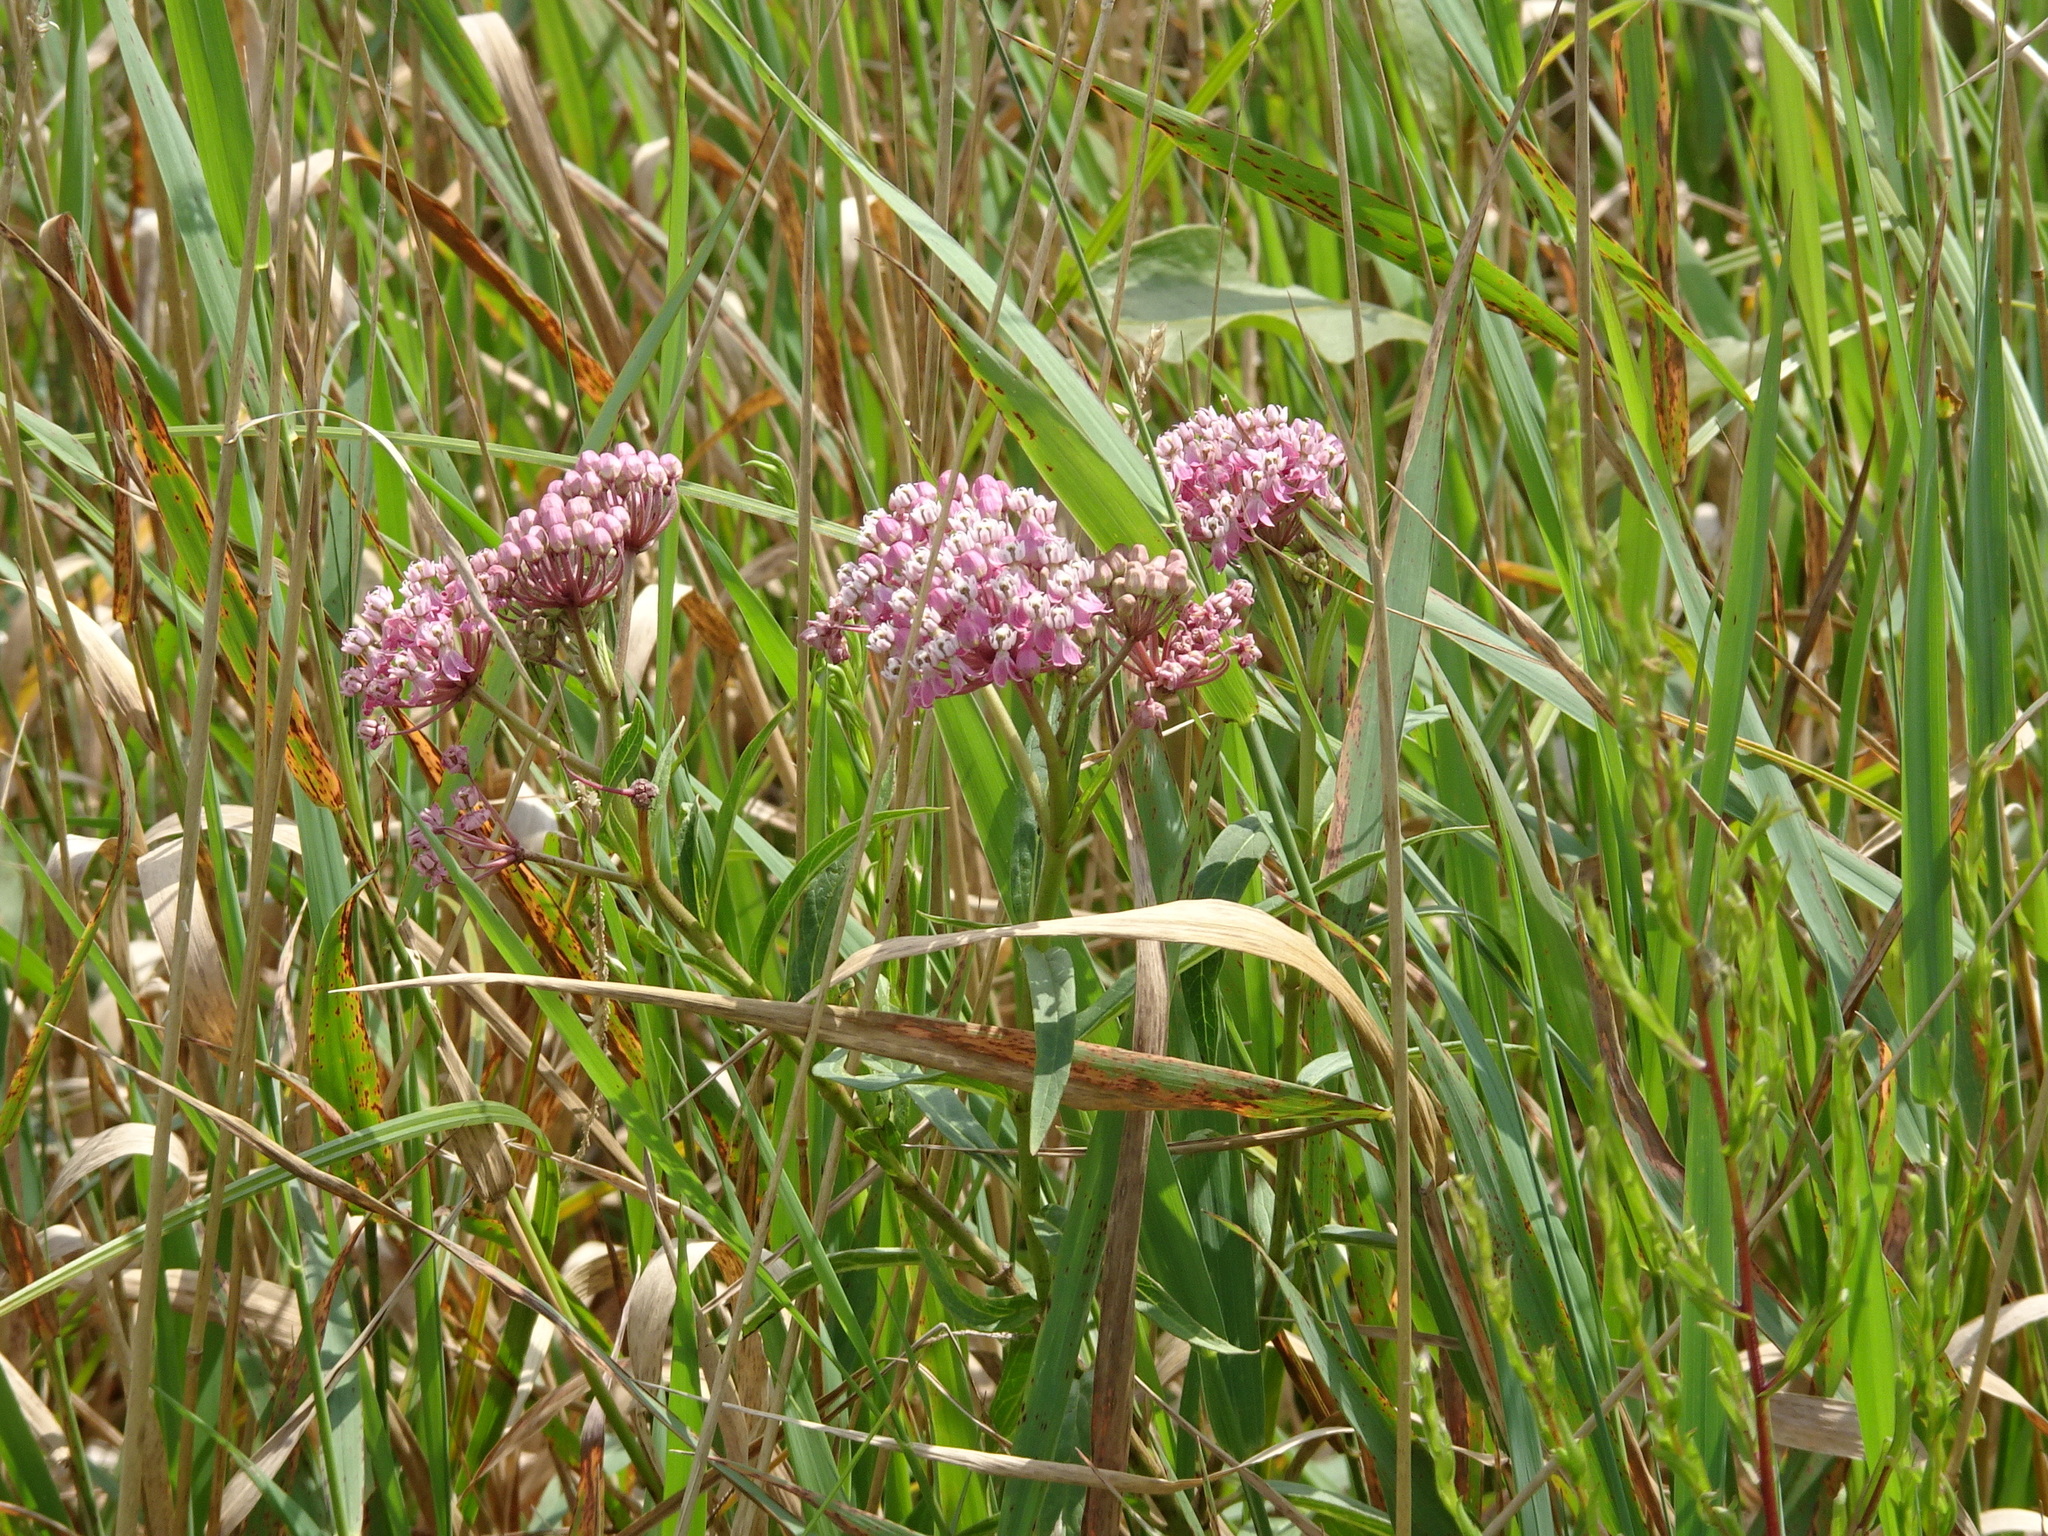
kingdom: Plantae
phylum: Tracheophyta
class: Magnoliopsida
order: Gentianales
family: Apocynaceae
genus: Asclepias
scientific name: Asclepias incarnata
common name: Swamp milkweed
